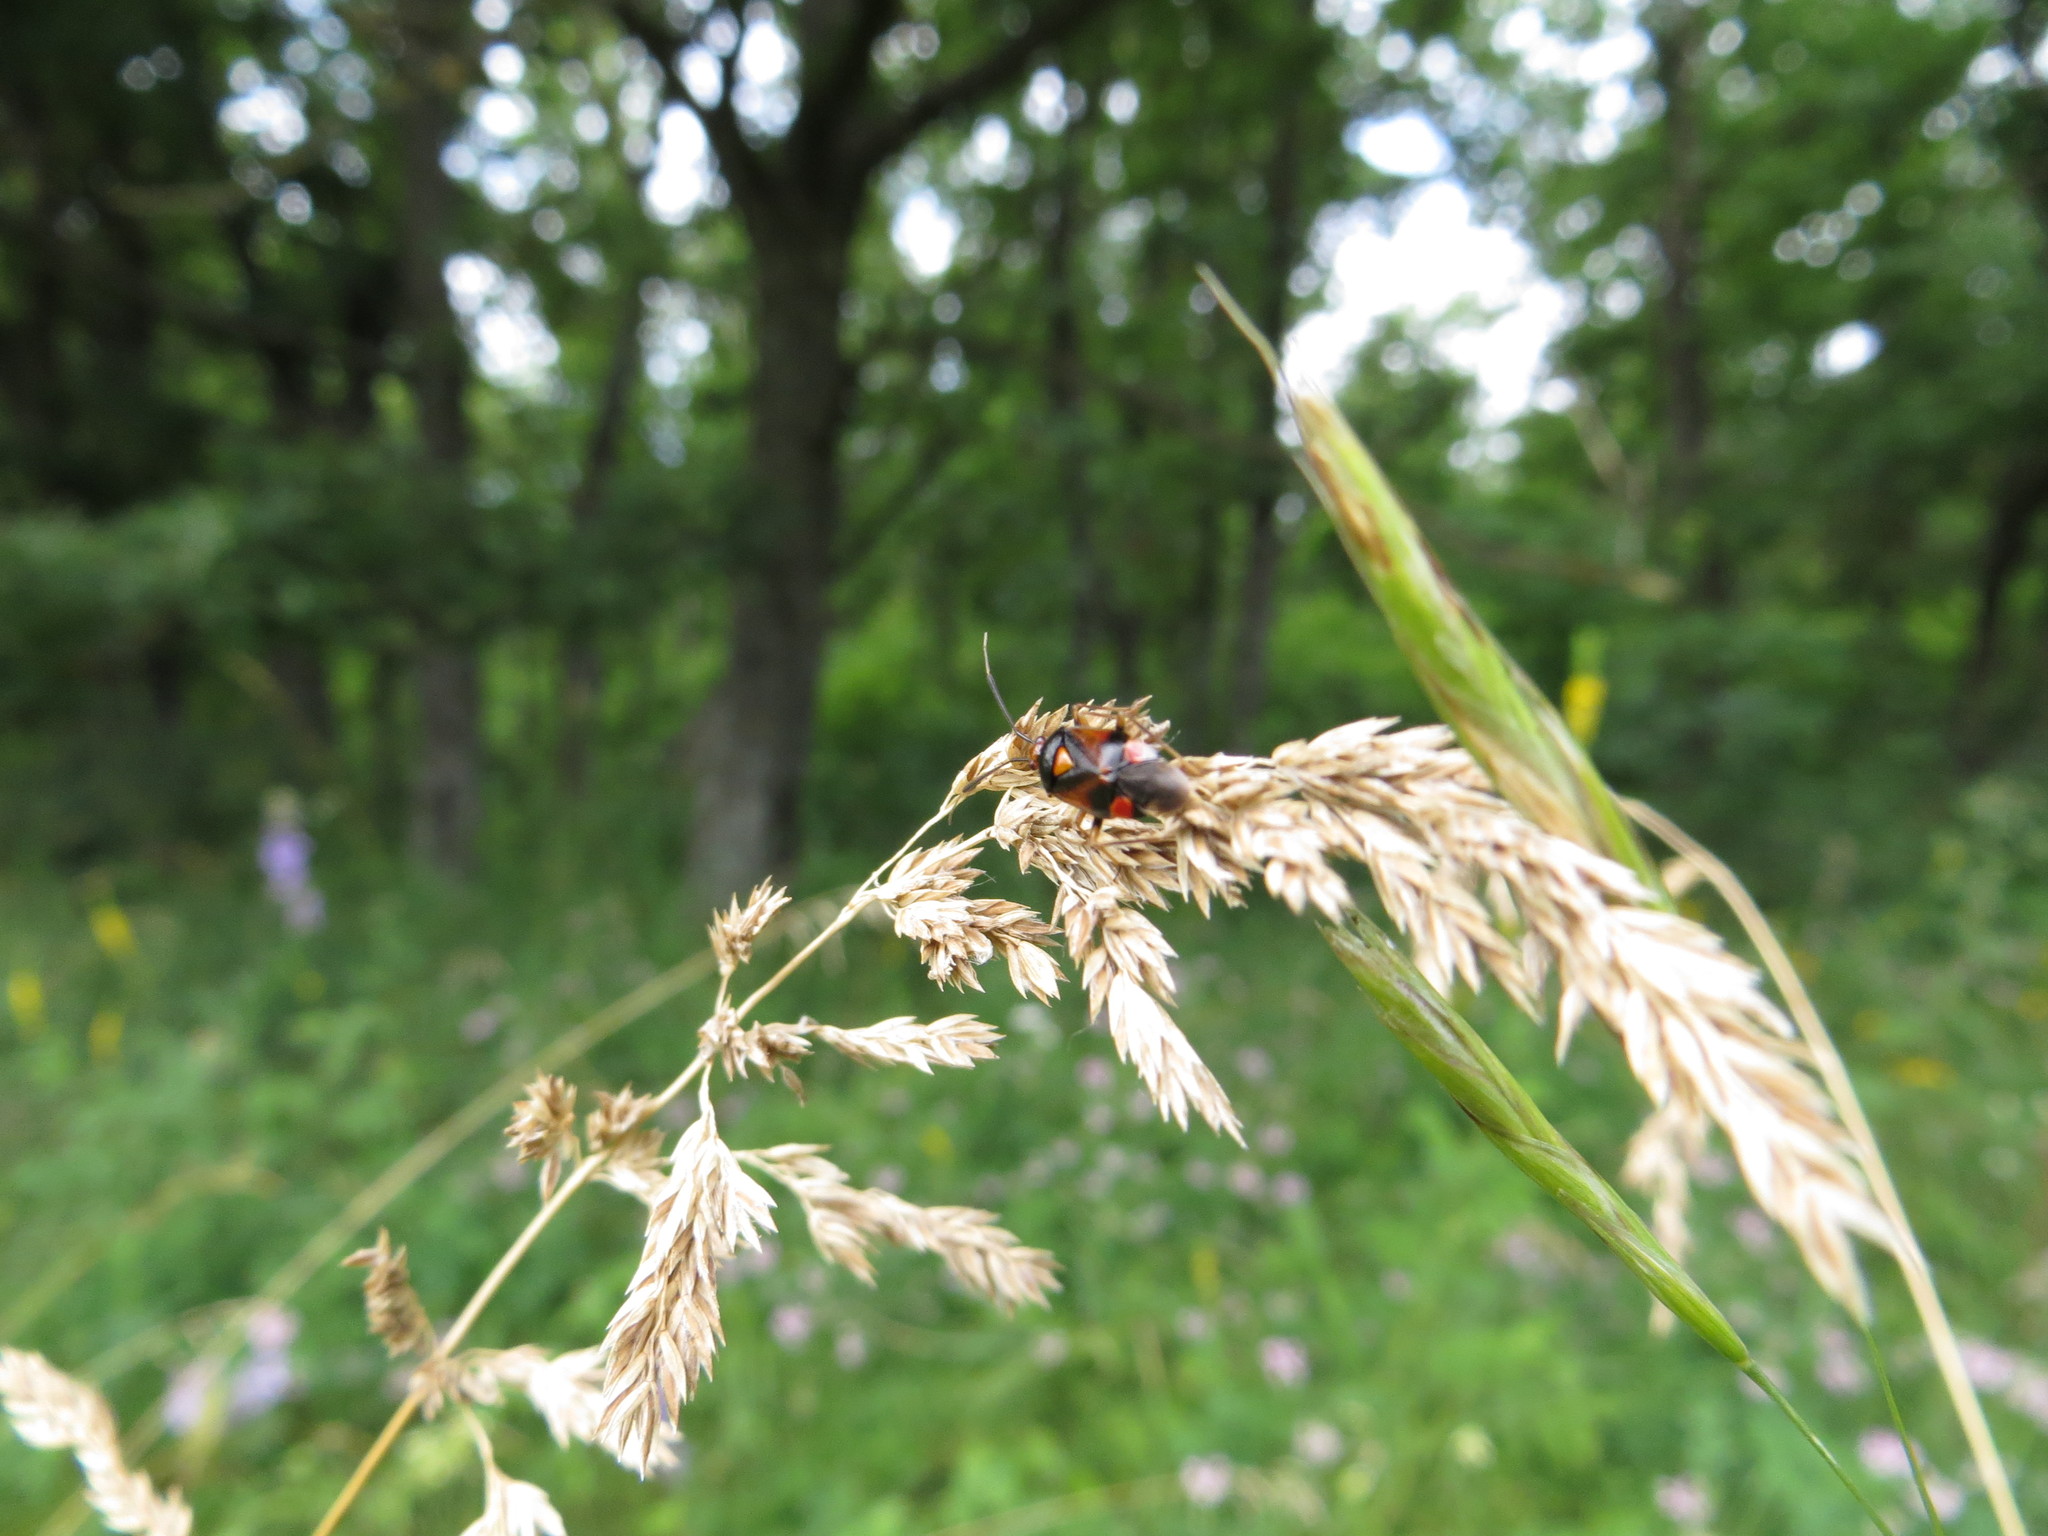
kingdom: Animalia
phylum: Arthropoda
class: Insecta
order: Hemiptera
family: Miridae
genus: Deraeocoris
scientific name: Deraeocoris ruber
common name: Plant bug
